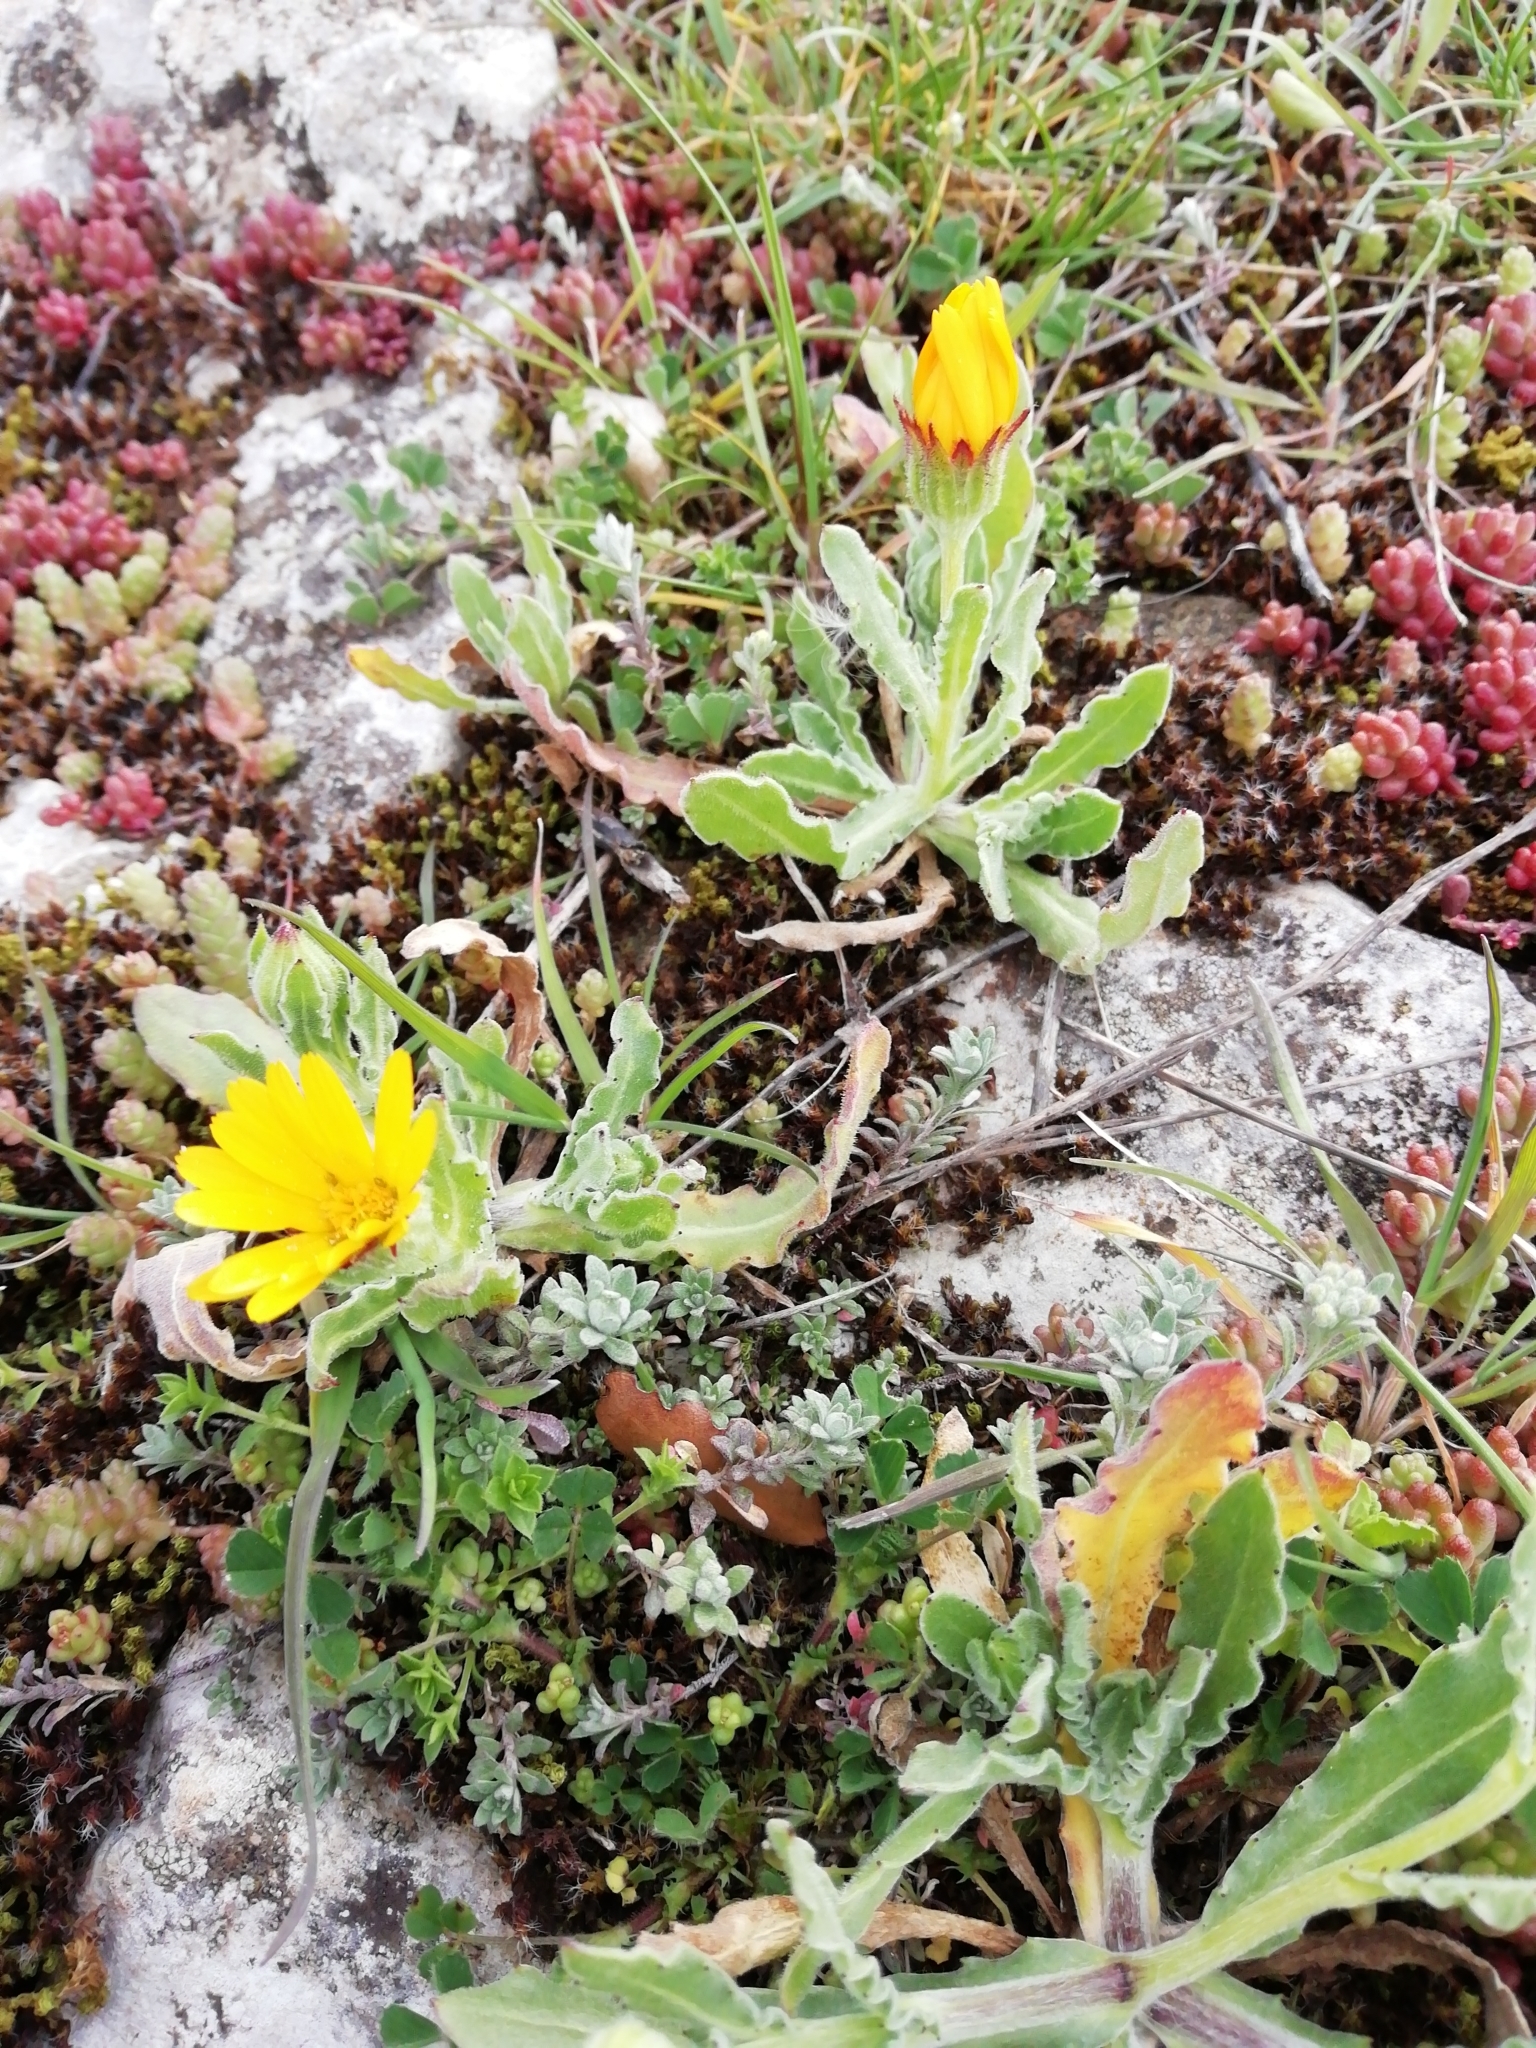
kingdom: Plantae
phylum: Tracheophyta
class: Magnoliopsida
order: Asterales
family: Asteraceae
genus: Calendula
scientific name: Calendula arvensis
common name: Field marigold
